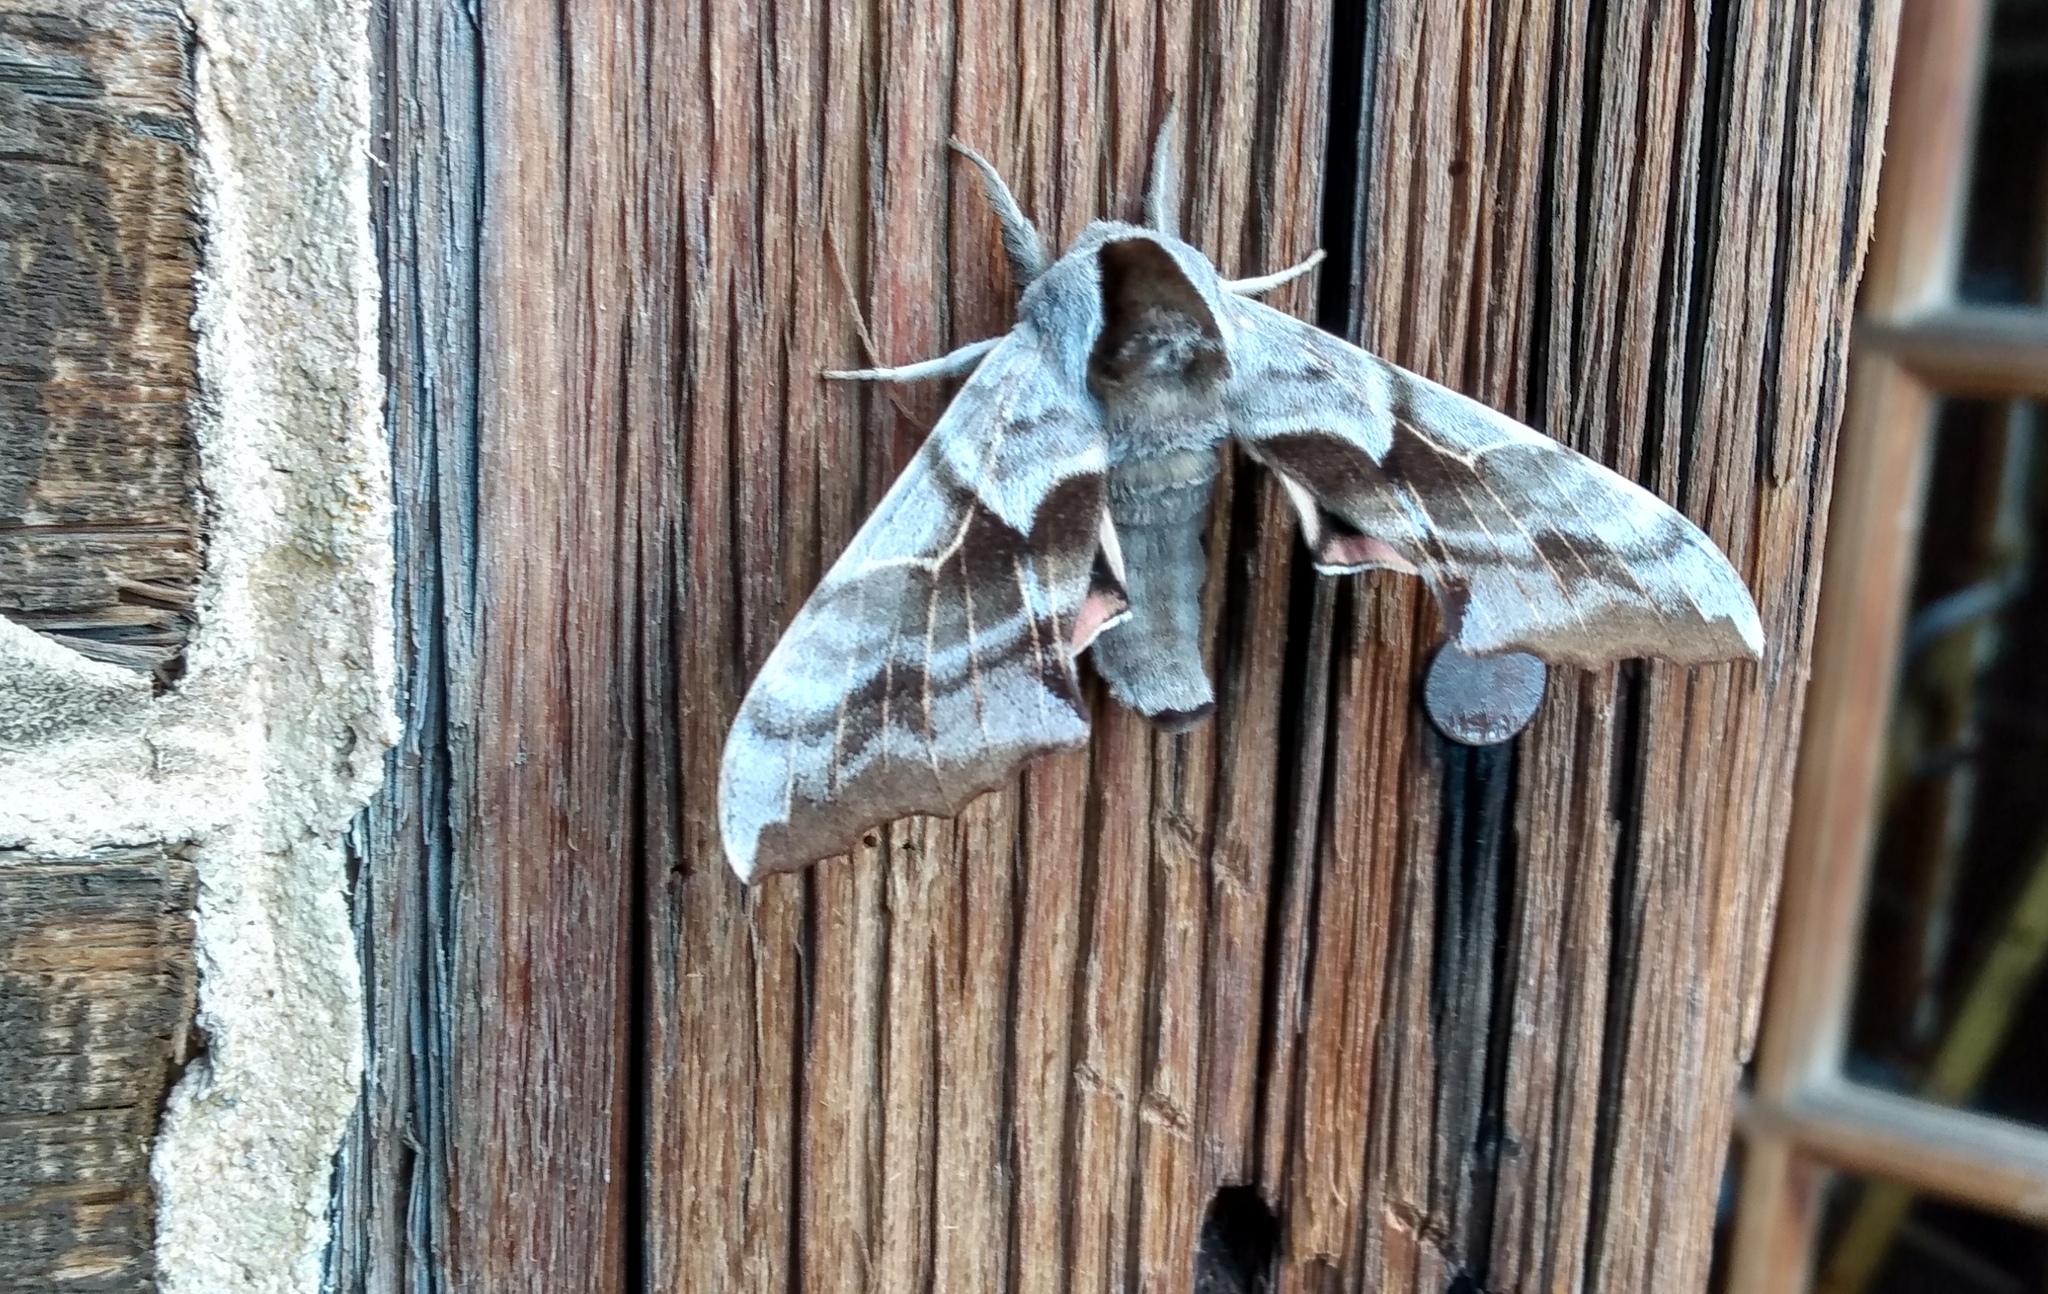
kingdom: Animalia
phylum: Arthropoda
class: Insecta
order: Lepidoptera
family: Sphingidae
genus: Smerinthus
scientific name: Smerinthus cerisyi
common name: Cerisy's sphinx moth
